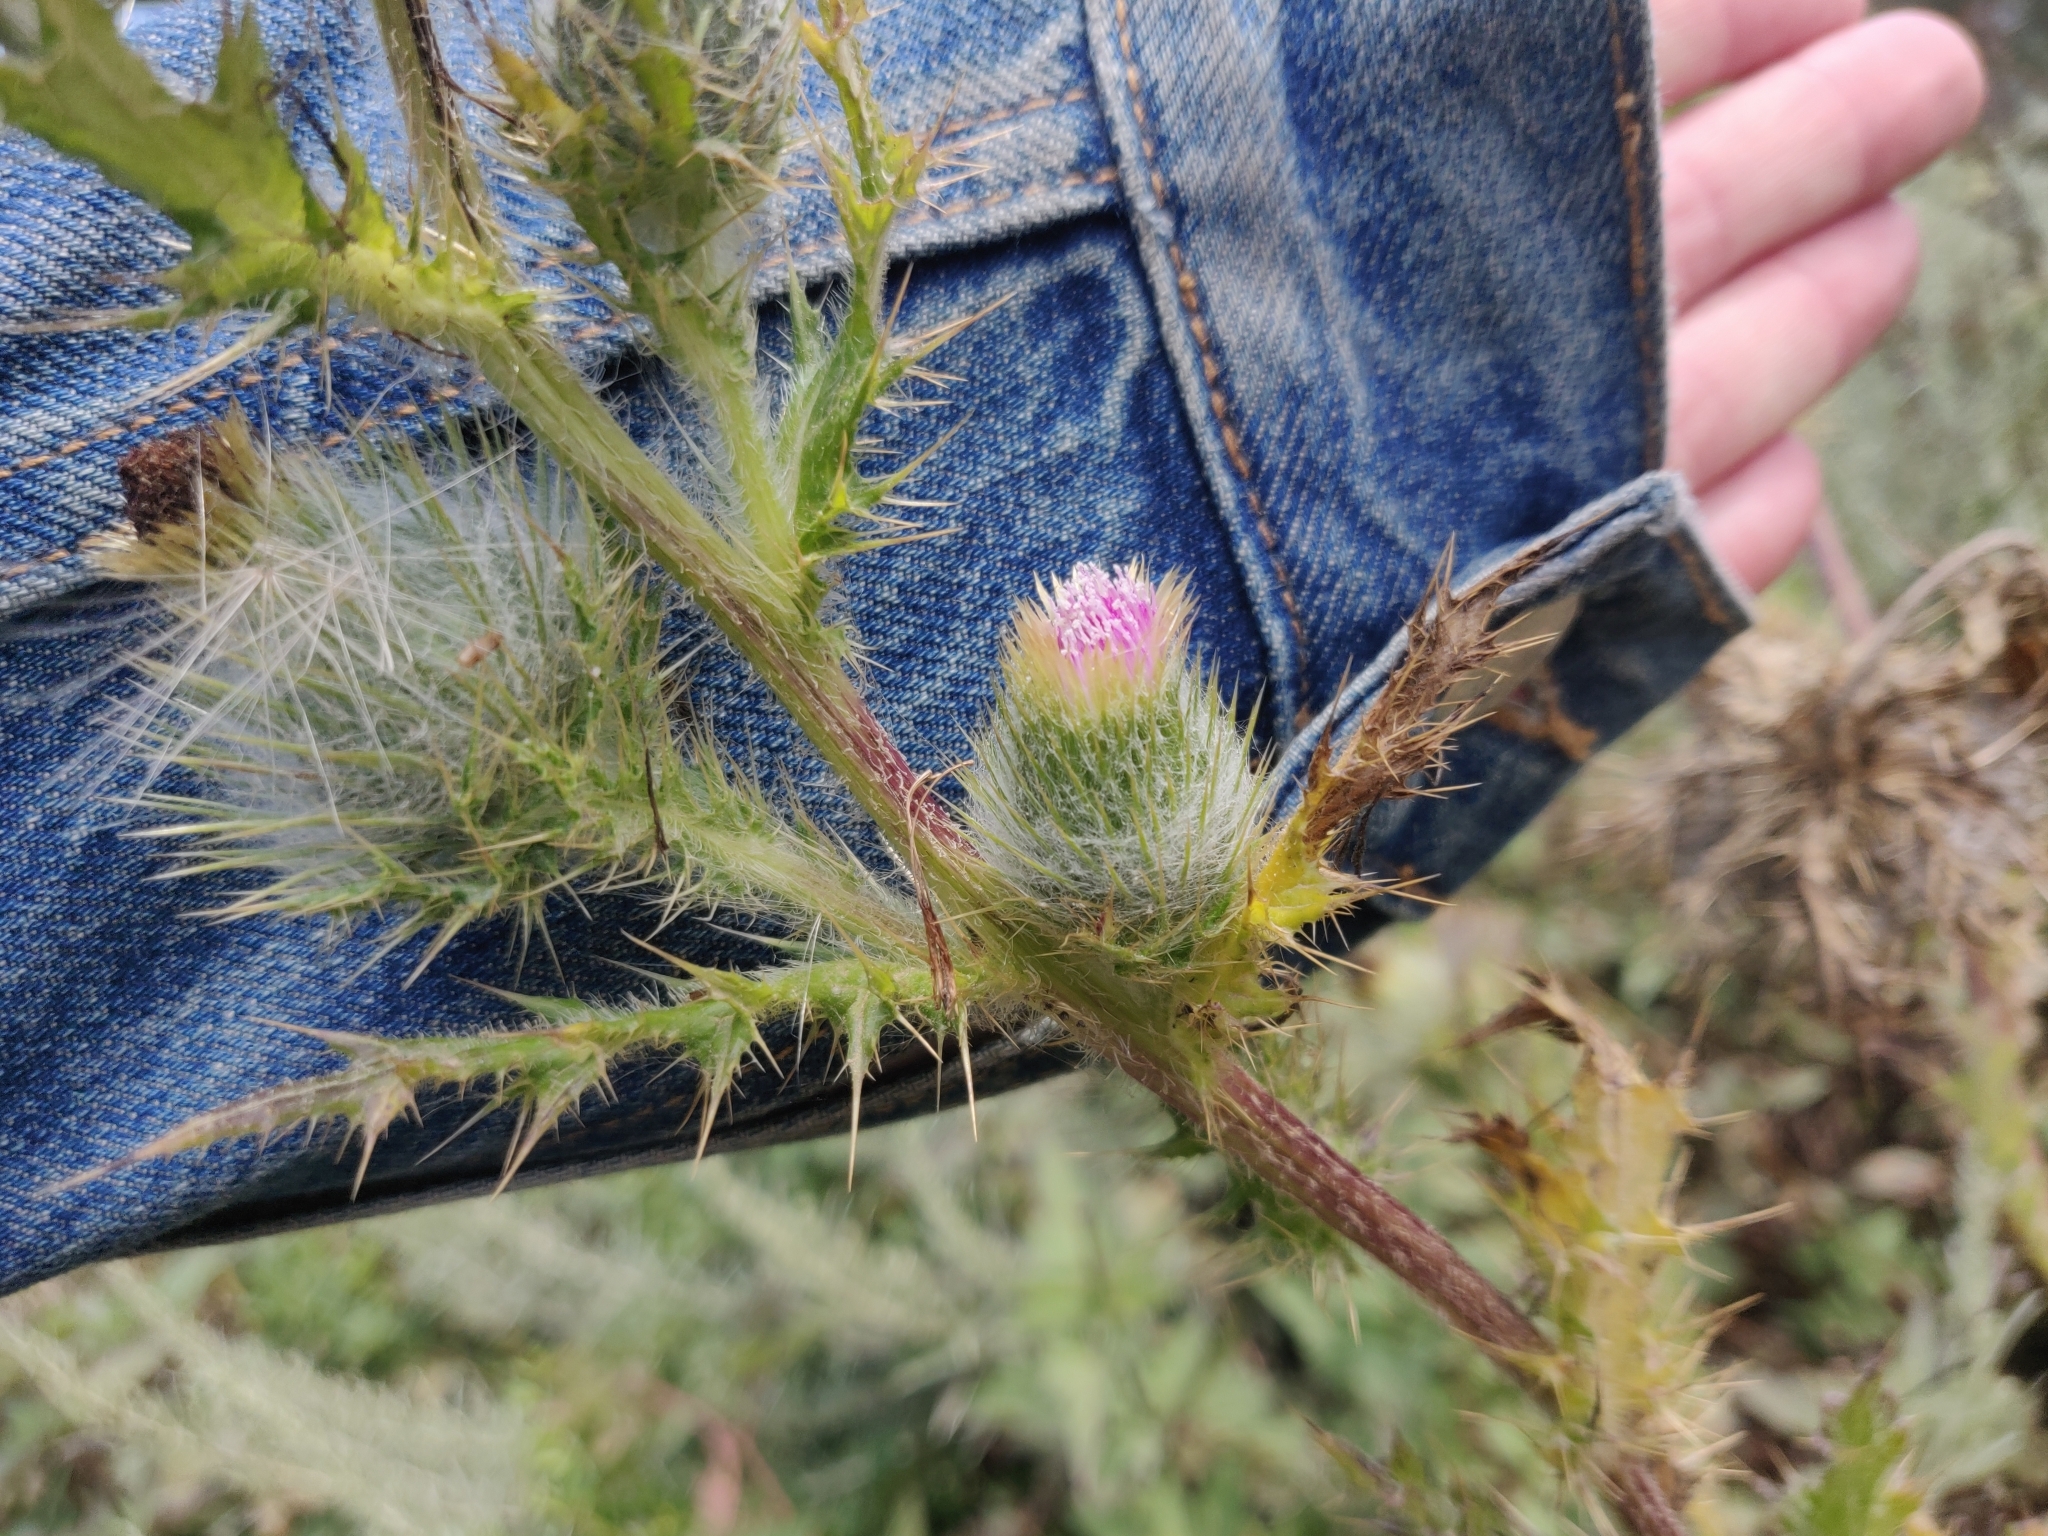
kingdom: Plantae
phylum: Tracheophyta
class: Magnoliopsida
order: Asterales
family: Asteraceae
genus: Cirsium
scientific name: Cirsium brevistylum
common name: Indian thistle
